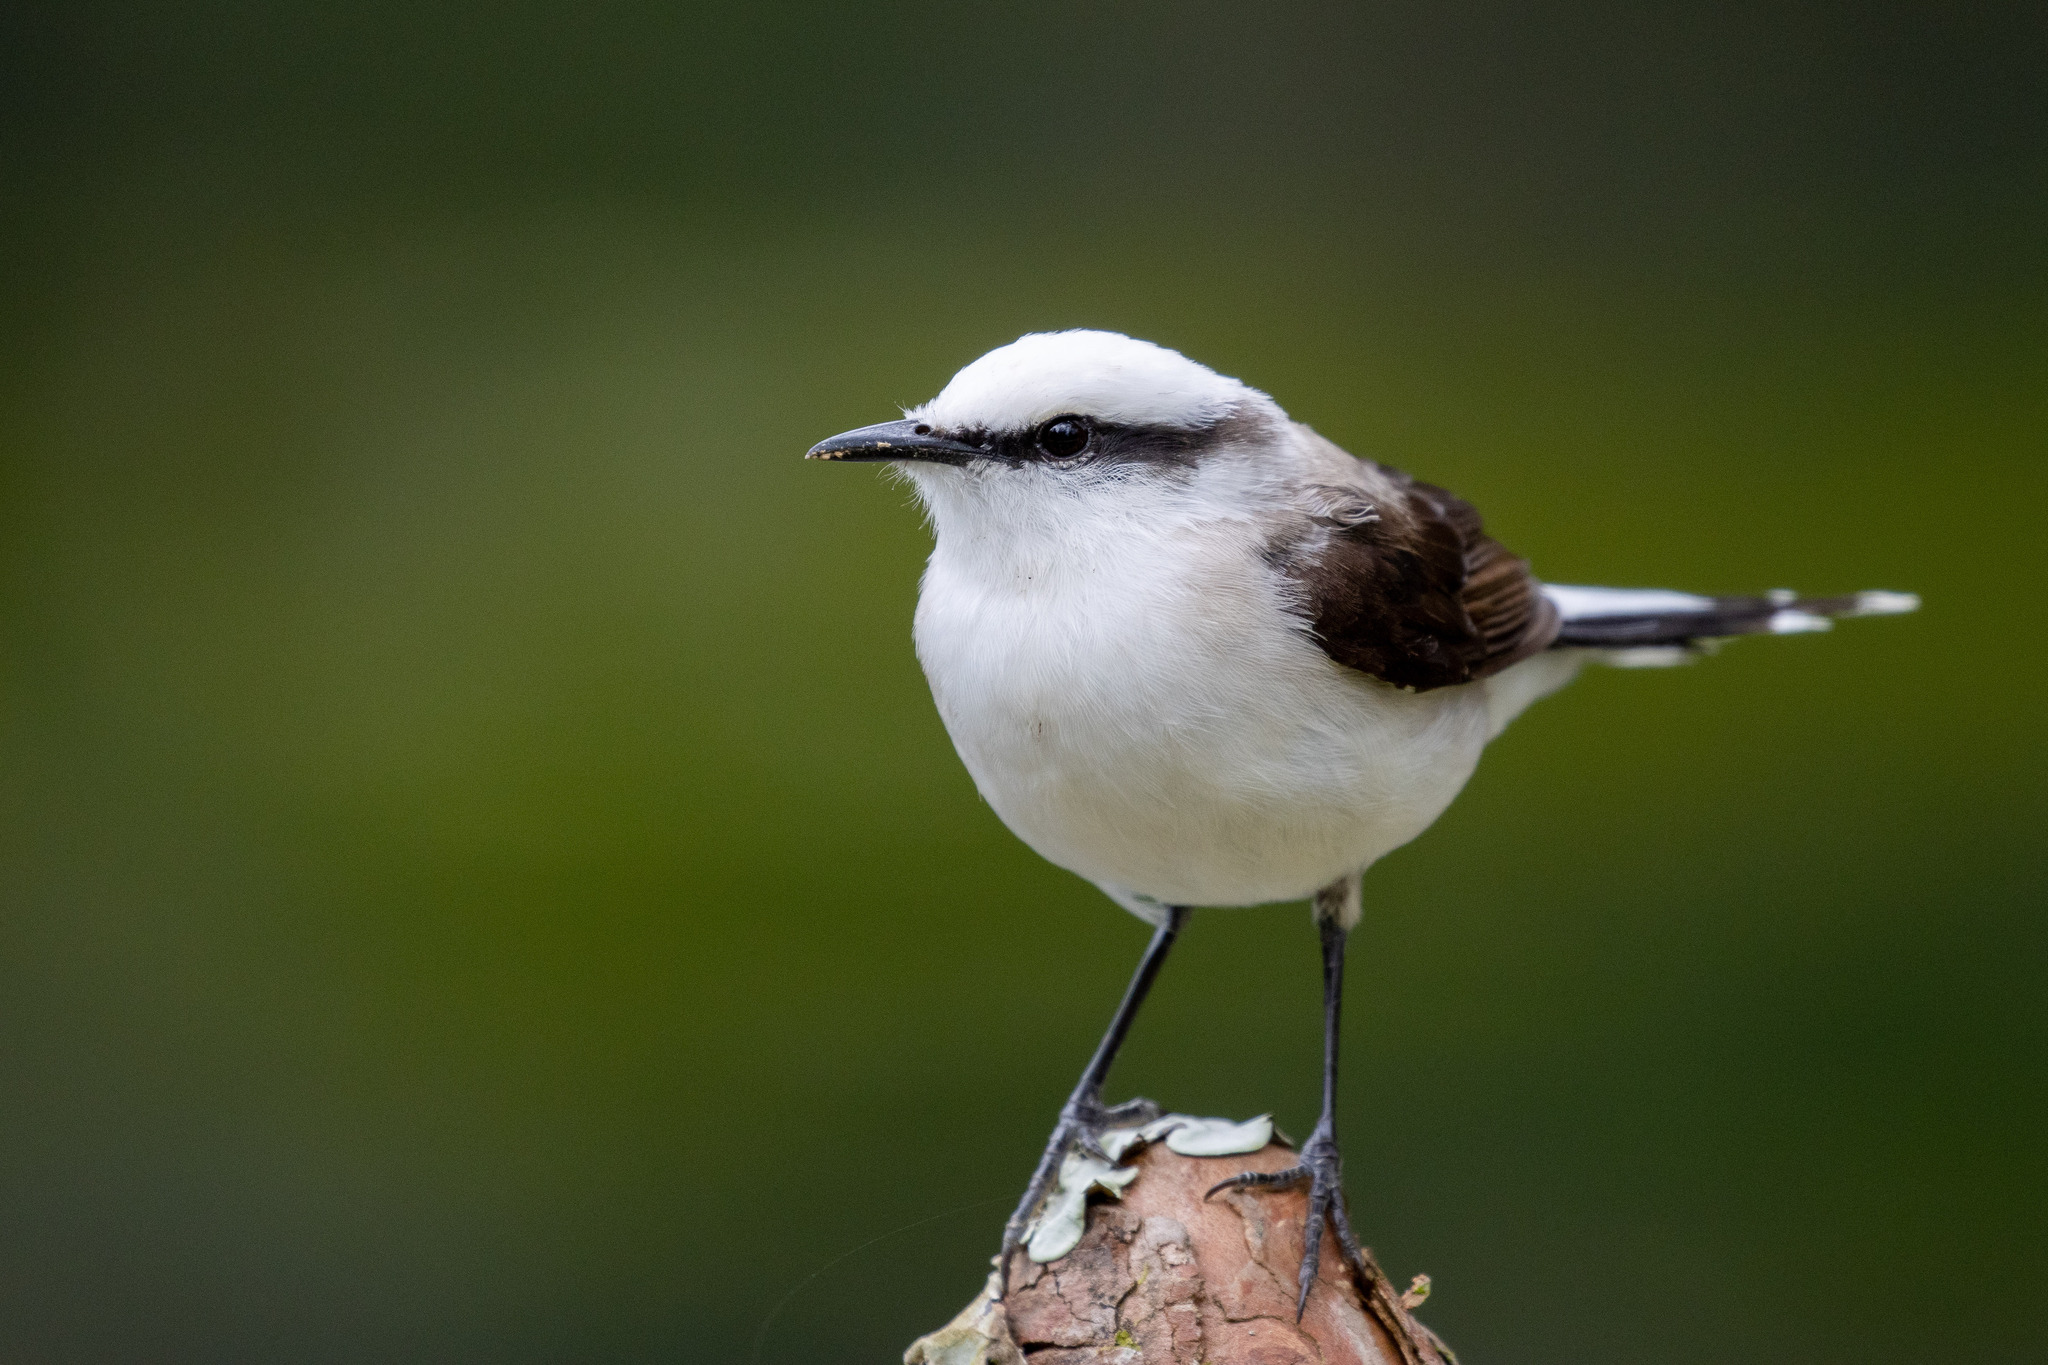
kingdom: Animalia
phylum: Chordata
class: Aves
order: Passeriformes
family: Tyrannidae
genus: Fluvicola
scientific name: Fluvicola nengeta
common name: Masked water tyrant
